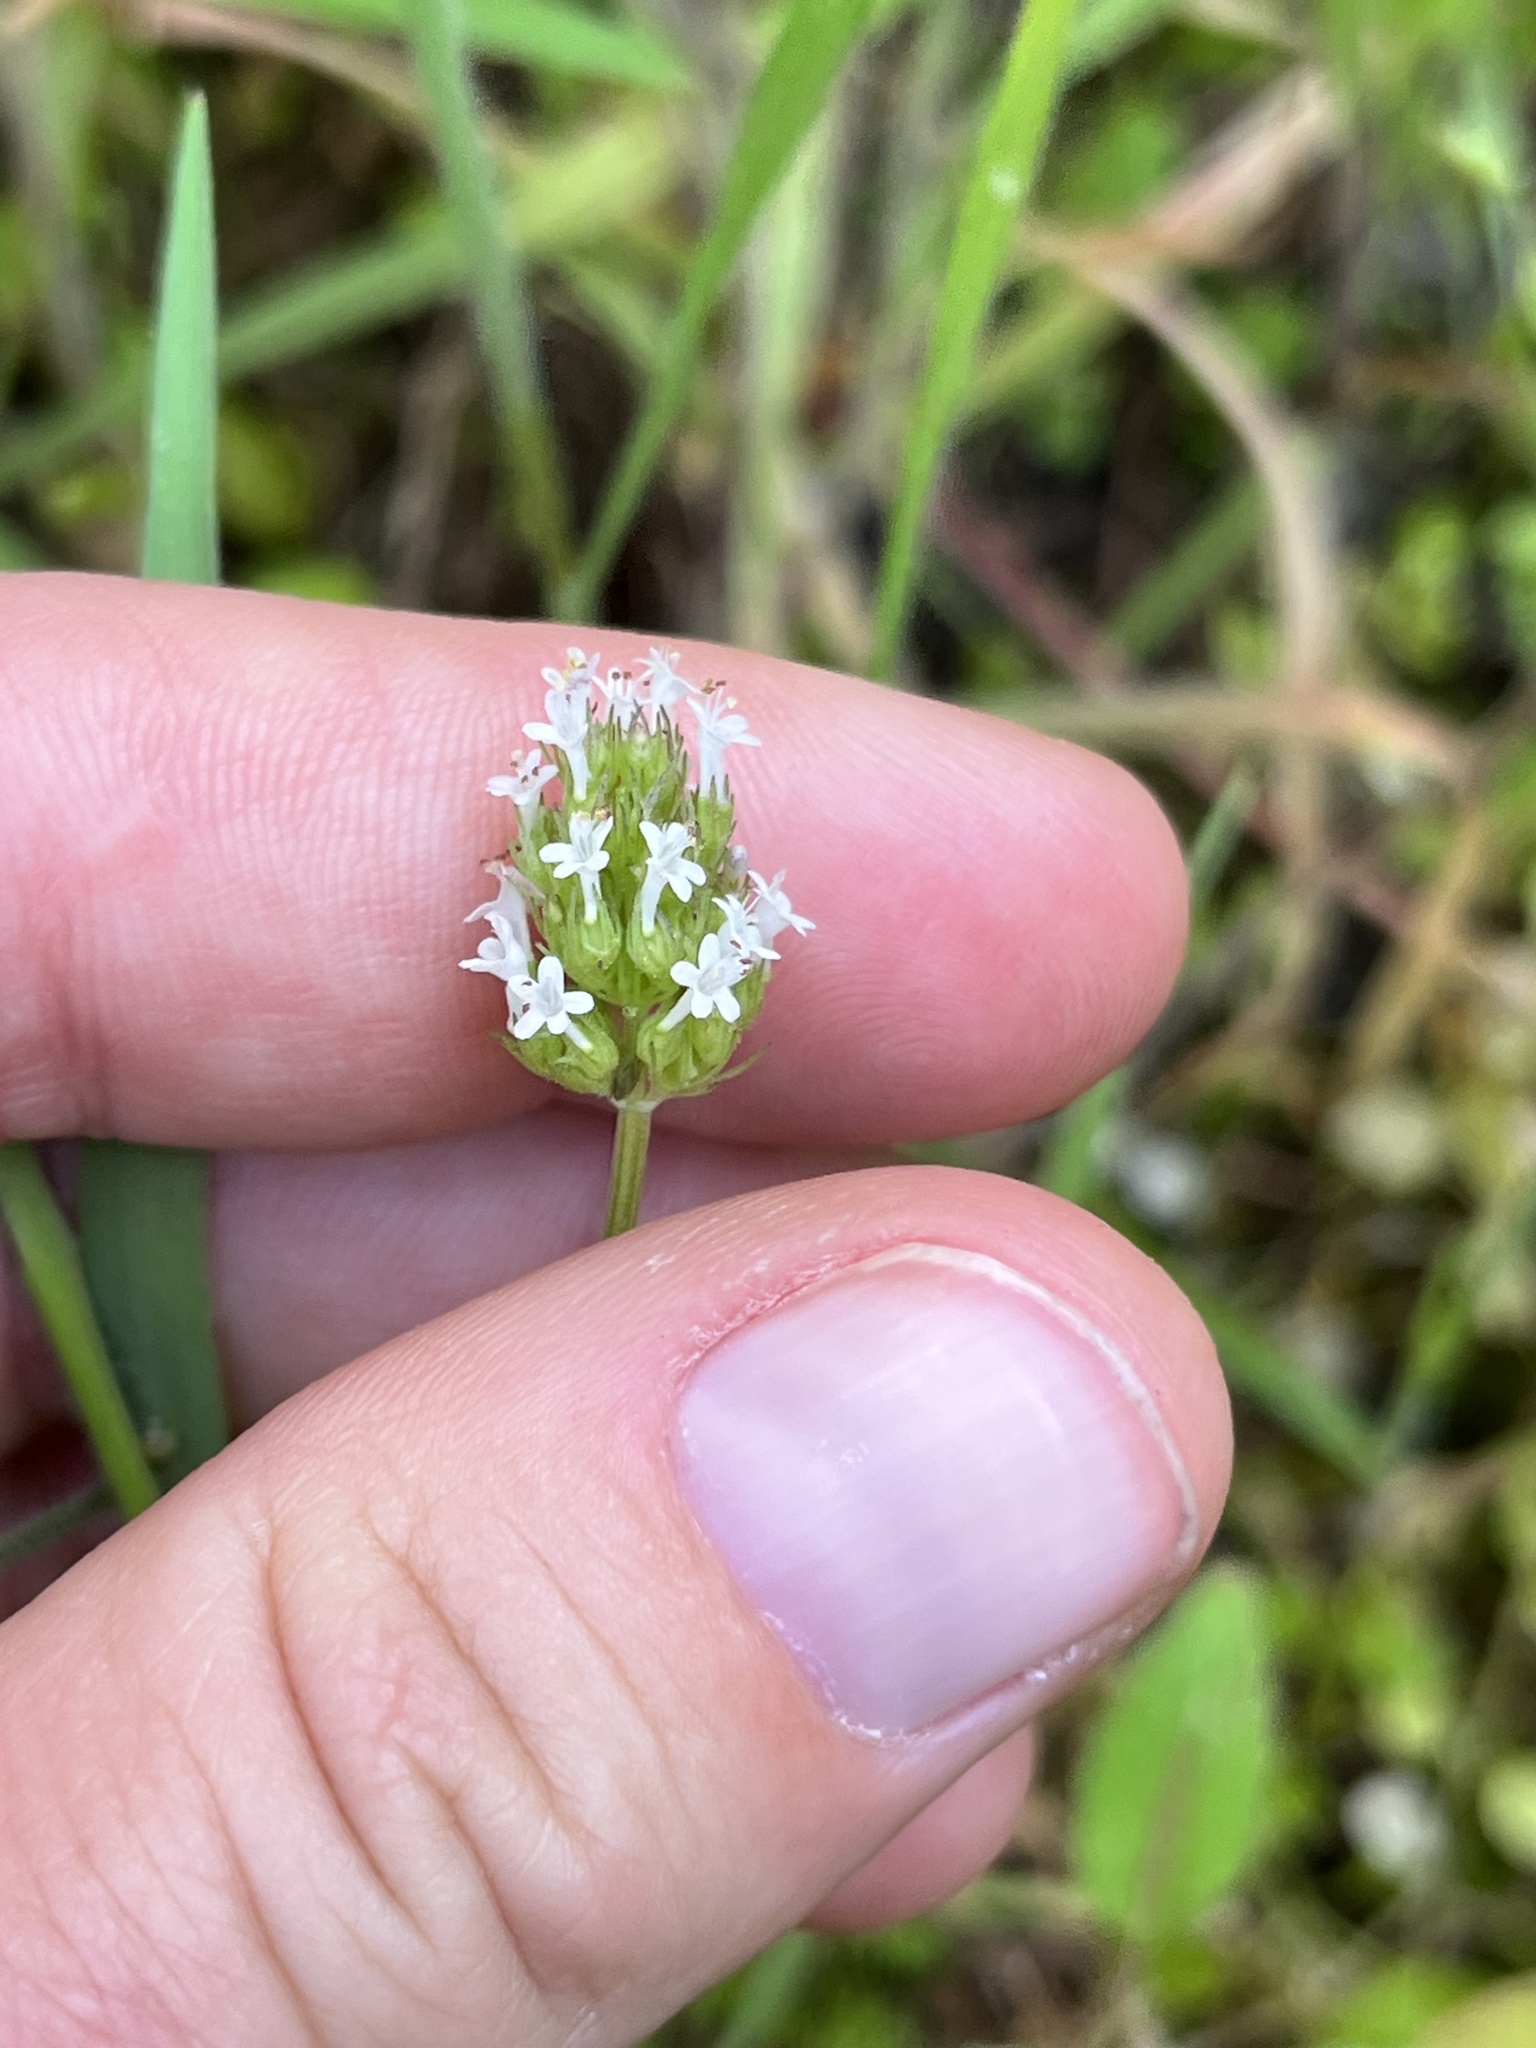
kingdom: Plantae
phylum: Tracheophyta
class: Magnoliopsida
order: Dipsacales
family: Caprifoliaceae
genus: Plectritis
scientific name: Plectritis macroptera
